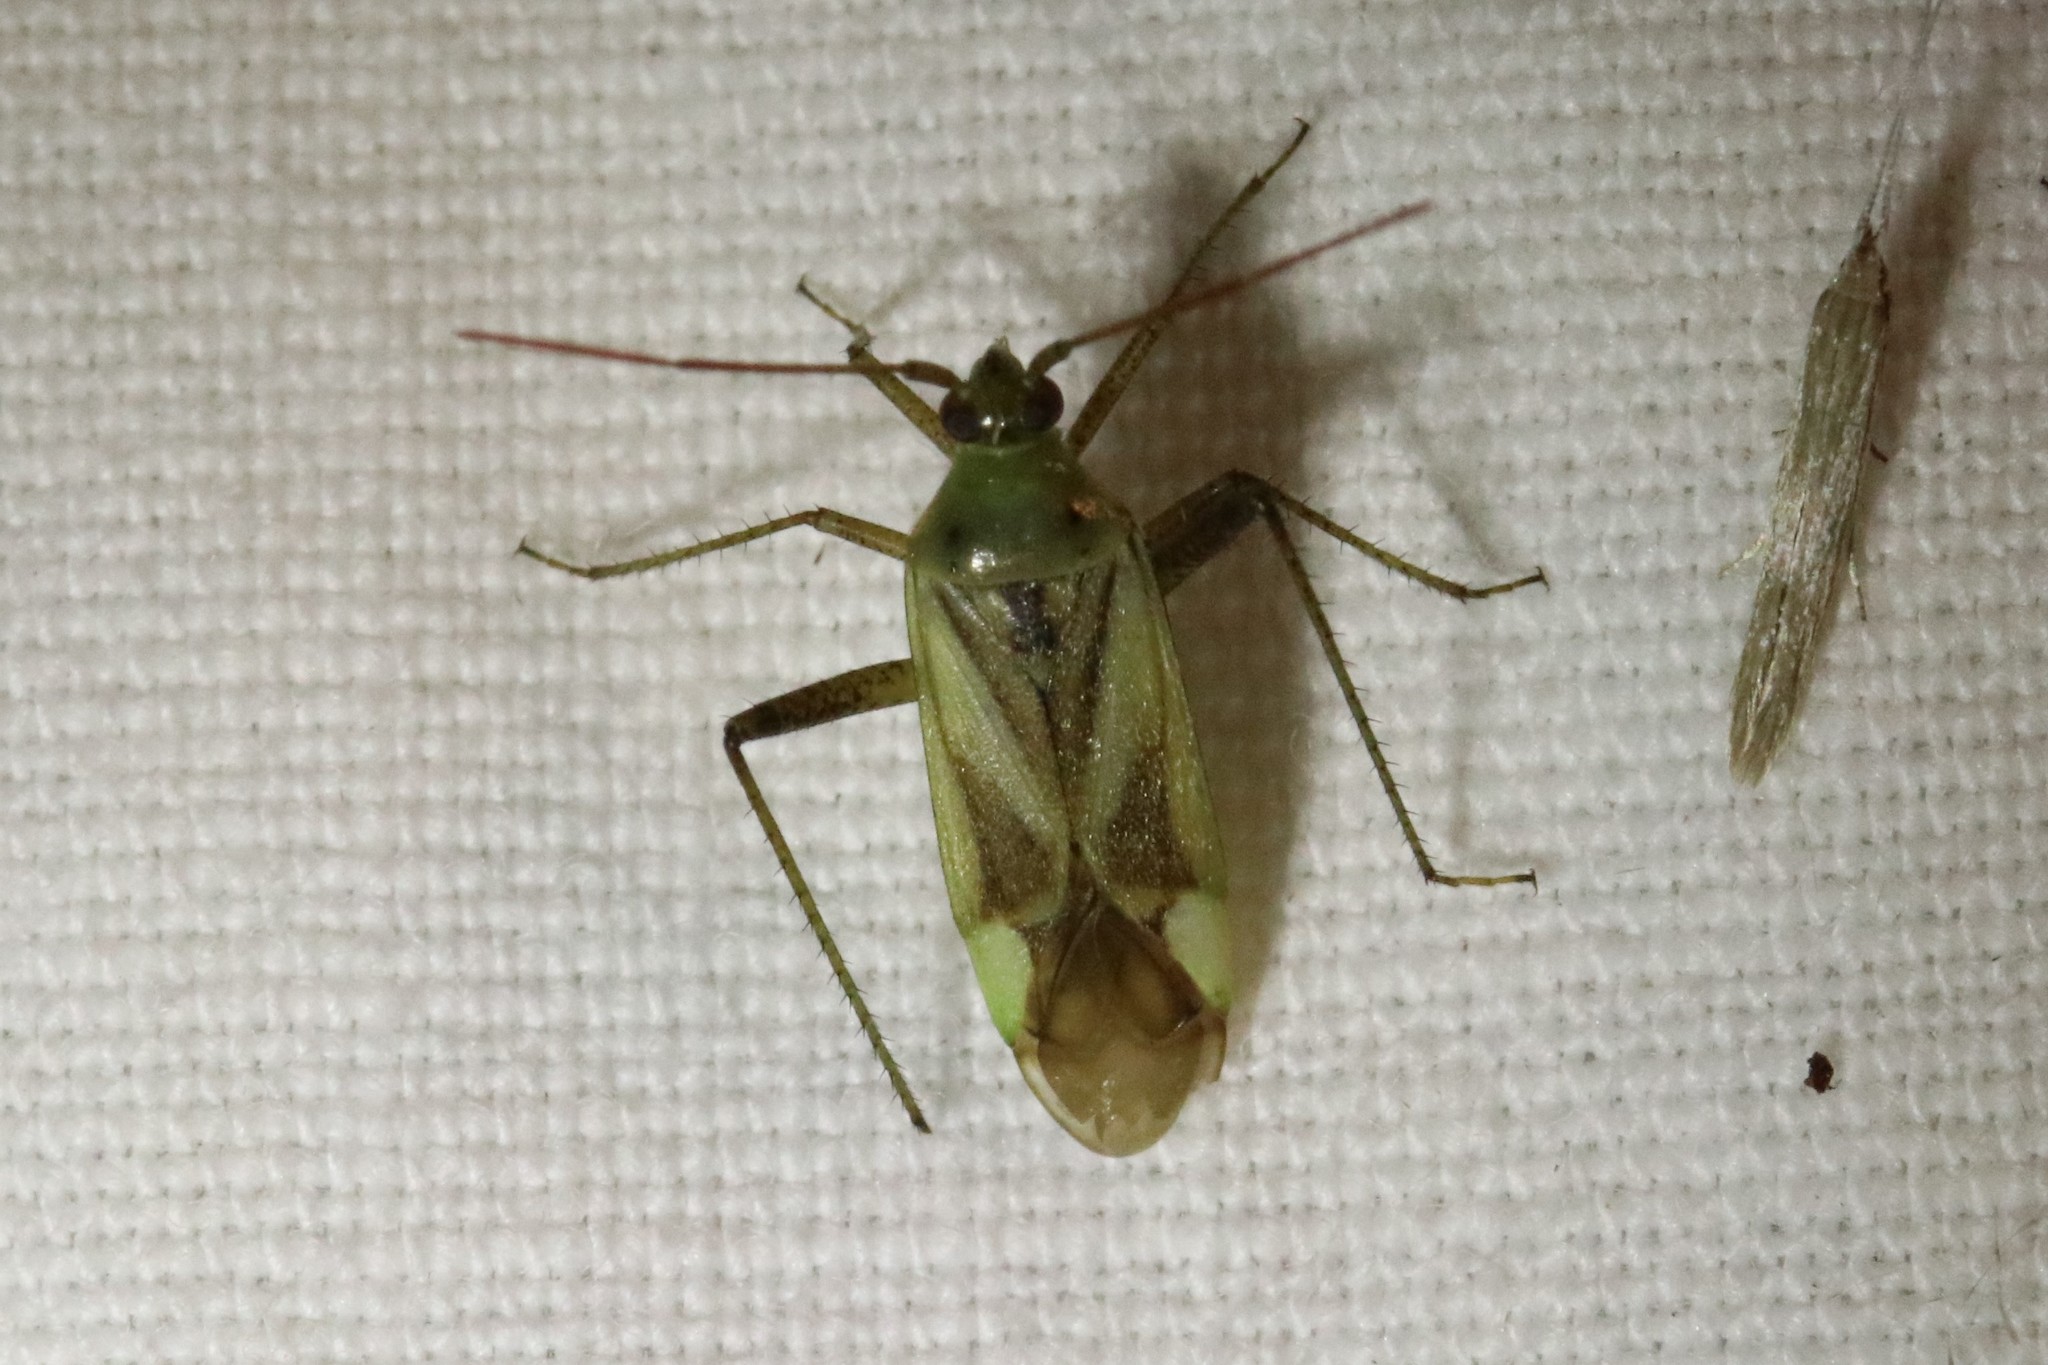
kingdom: Animalia
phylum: Arthropoda
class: Insecta
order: Hemiptera
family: Miridae
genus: Adelphocoris
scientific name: Adelphocoris lineolatus
